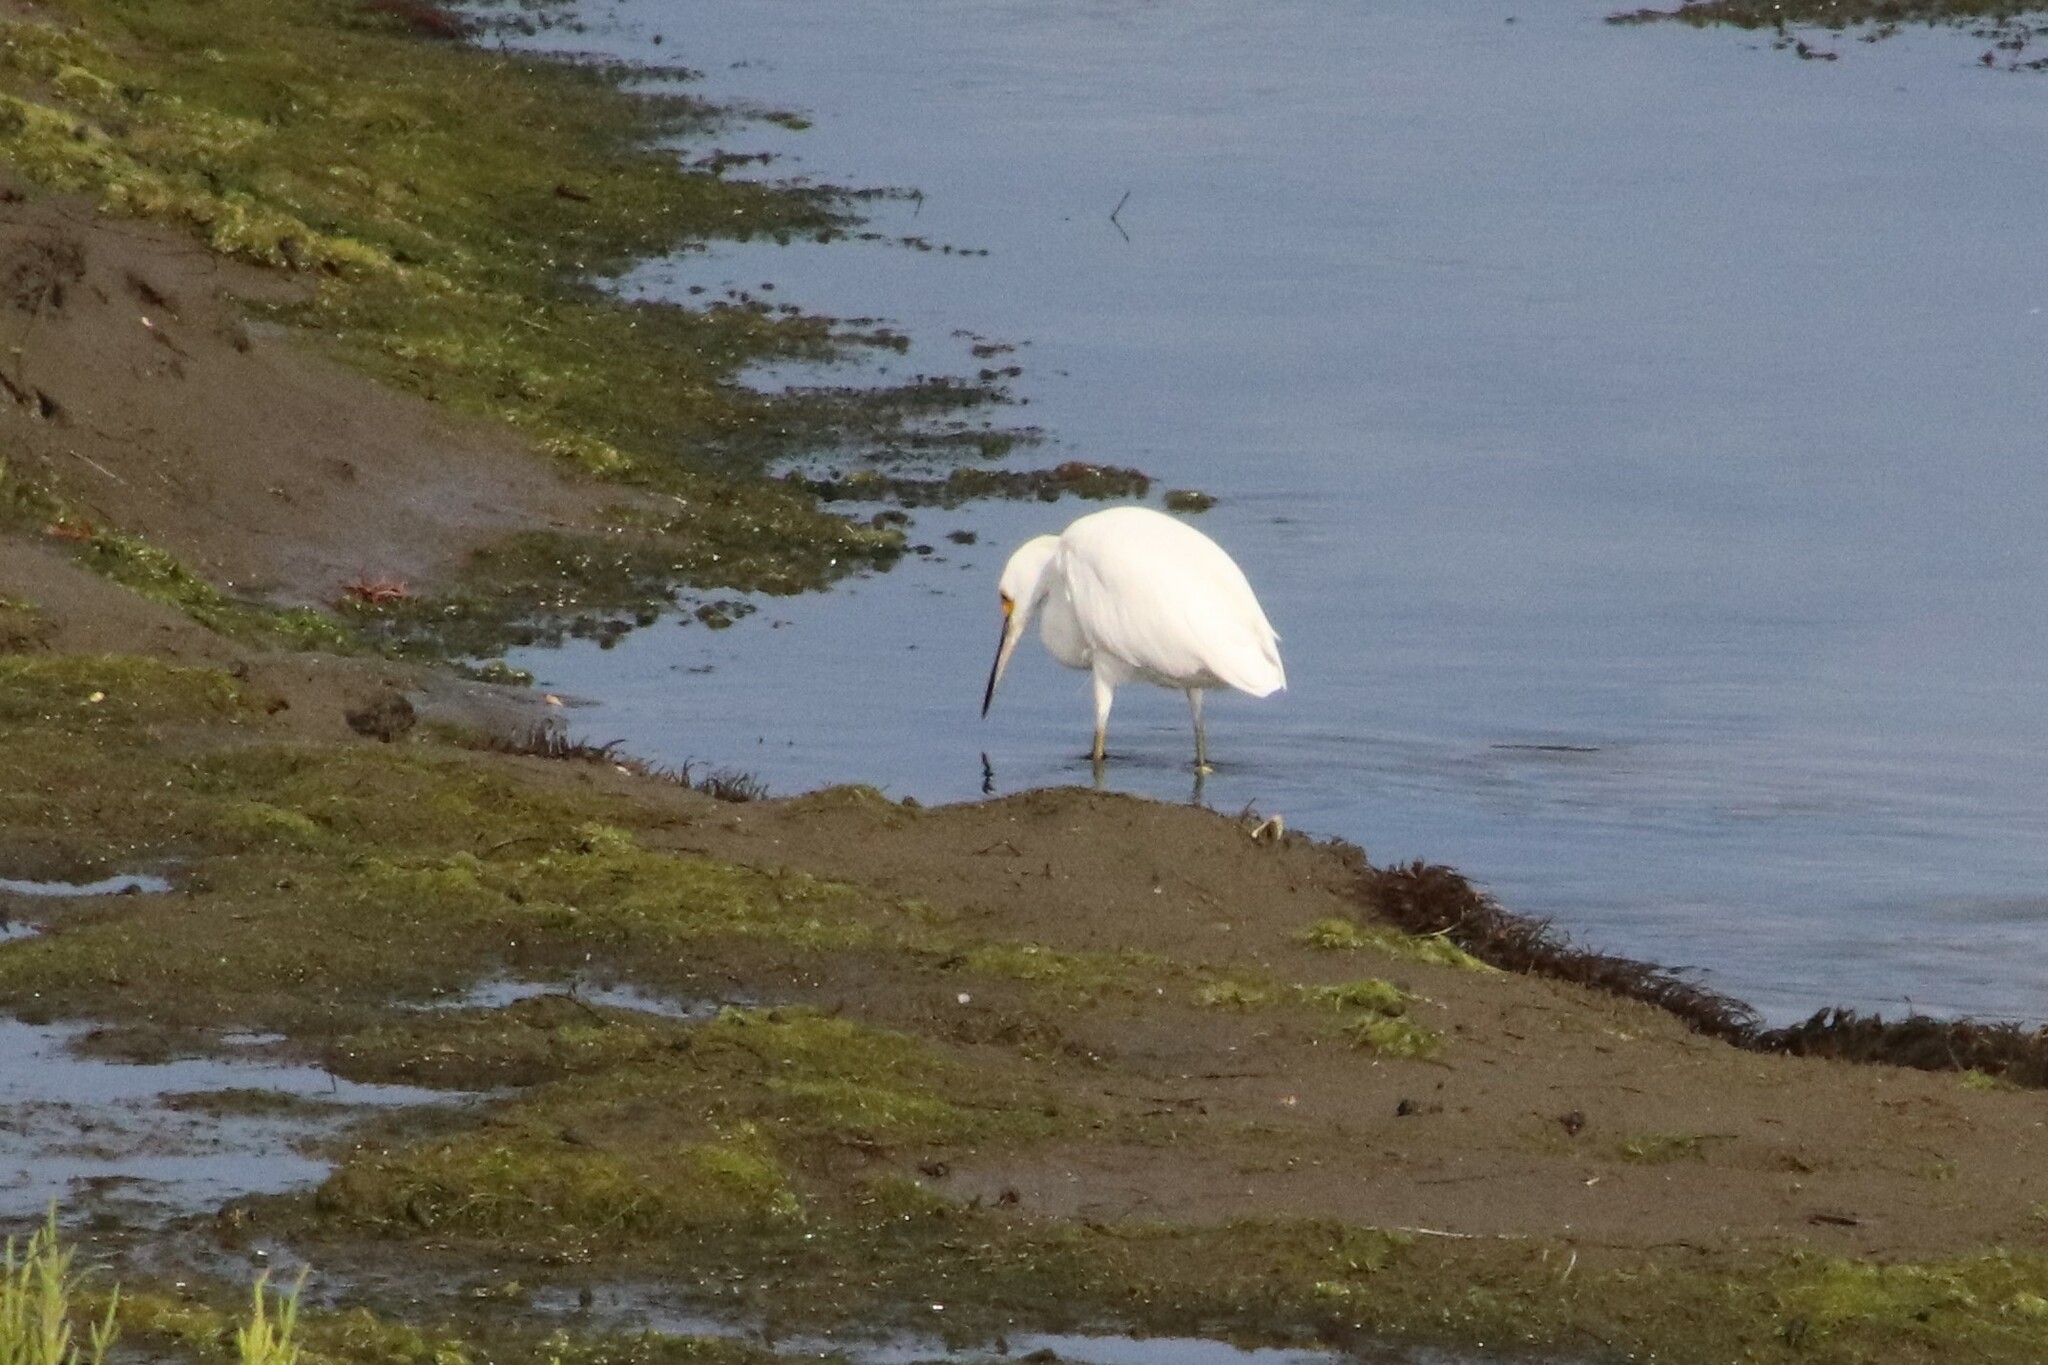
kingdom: Animalia
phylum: Chordata
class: Aves
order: Pelecaniformes
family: Ardeidae
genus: Egretta
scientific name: Egretta thula
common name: Snowy egret
